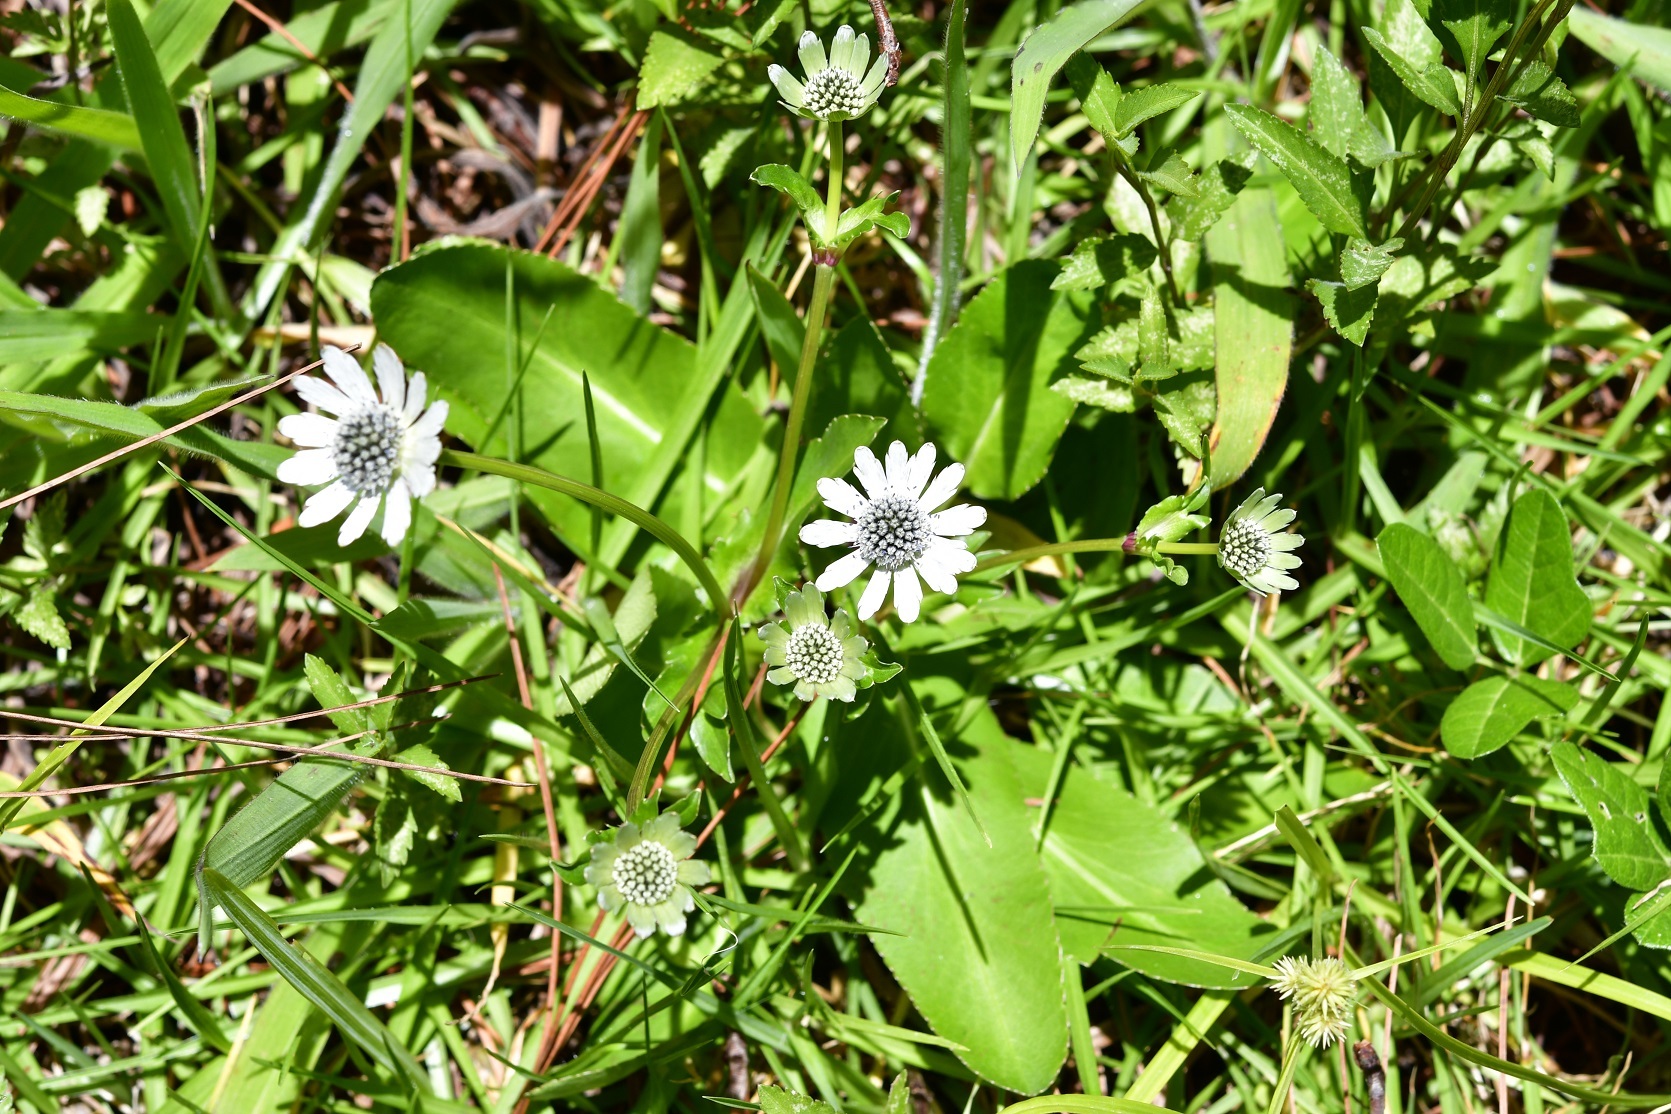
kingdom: Plantae
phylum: Tracheophyta
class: Magnoliopsida
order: Apiales
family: Apiaceae
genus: Eryngium
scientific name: Eryngium scaposum
